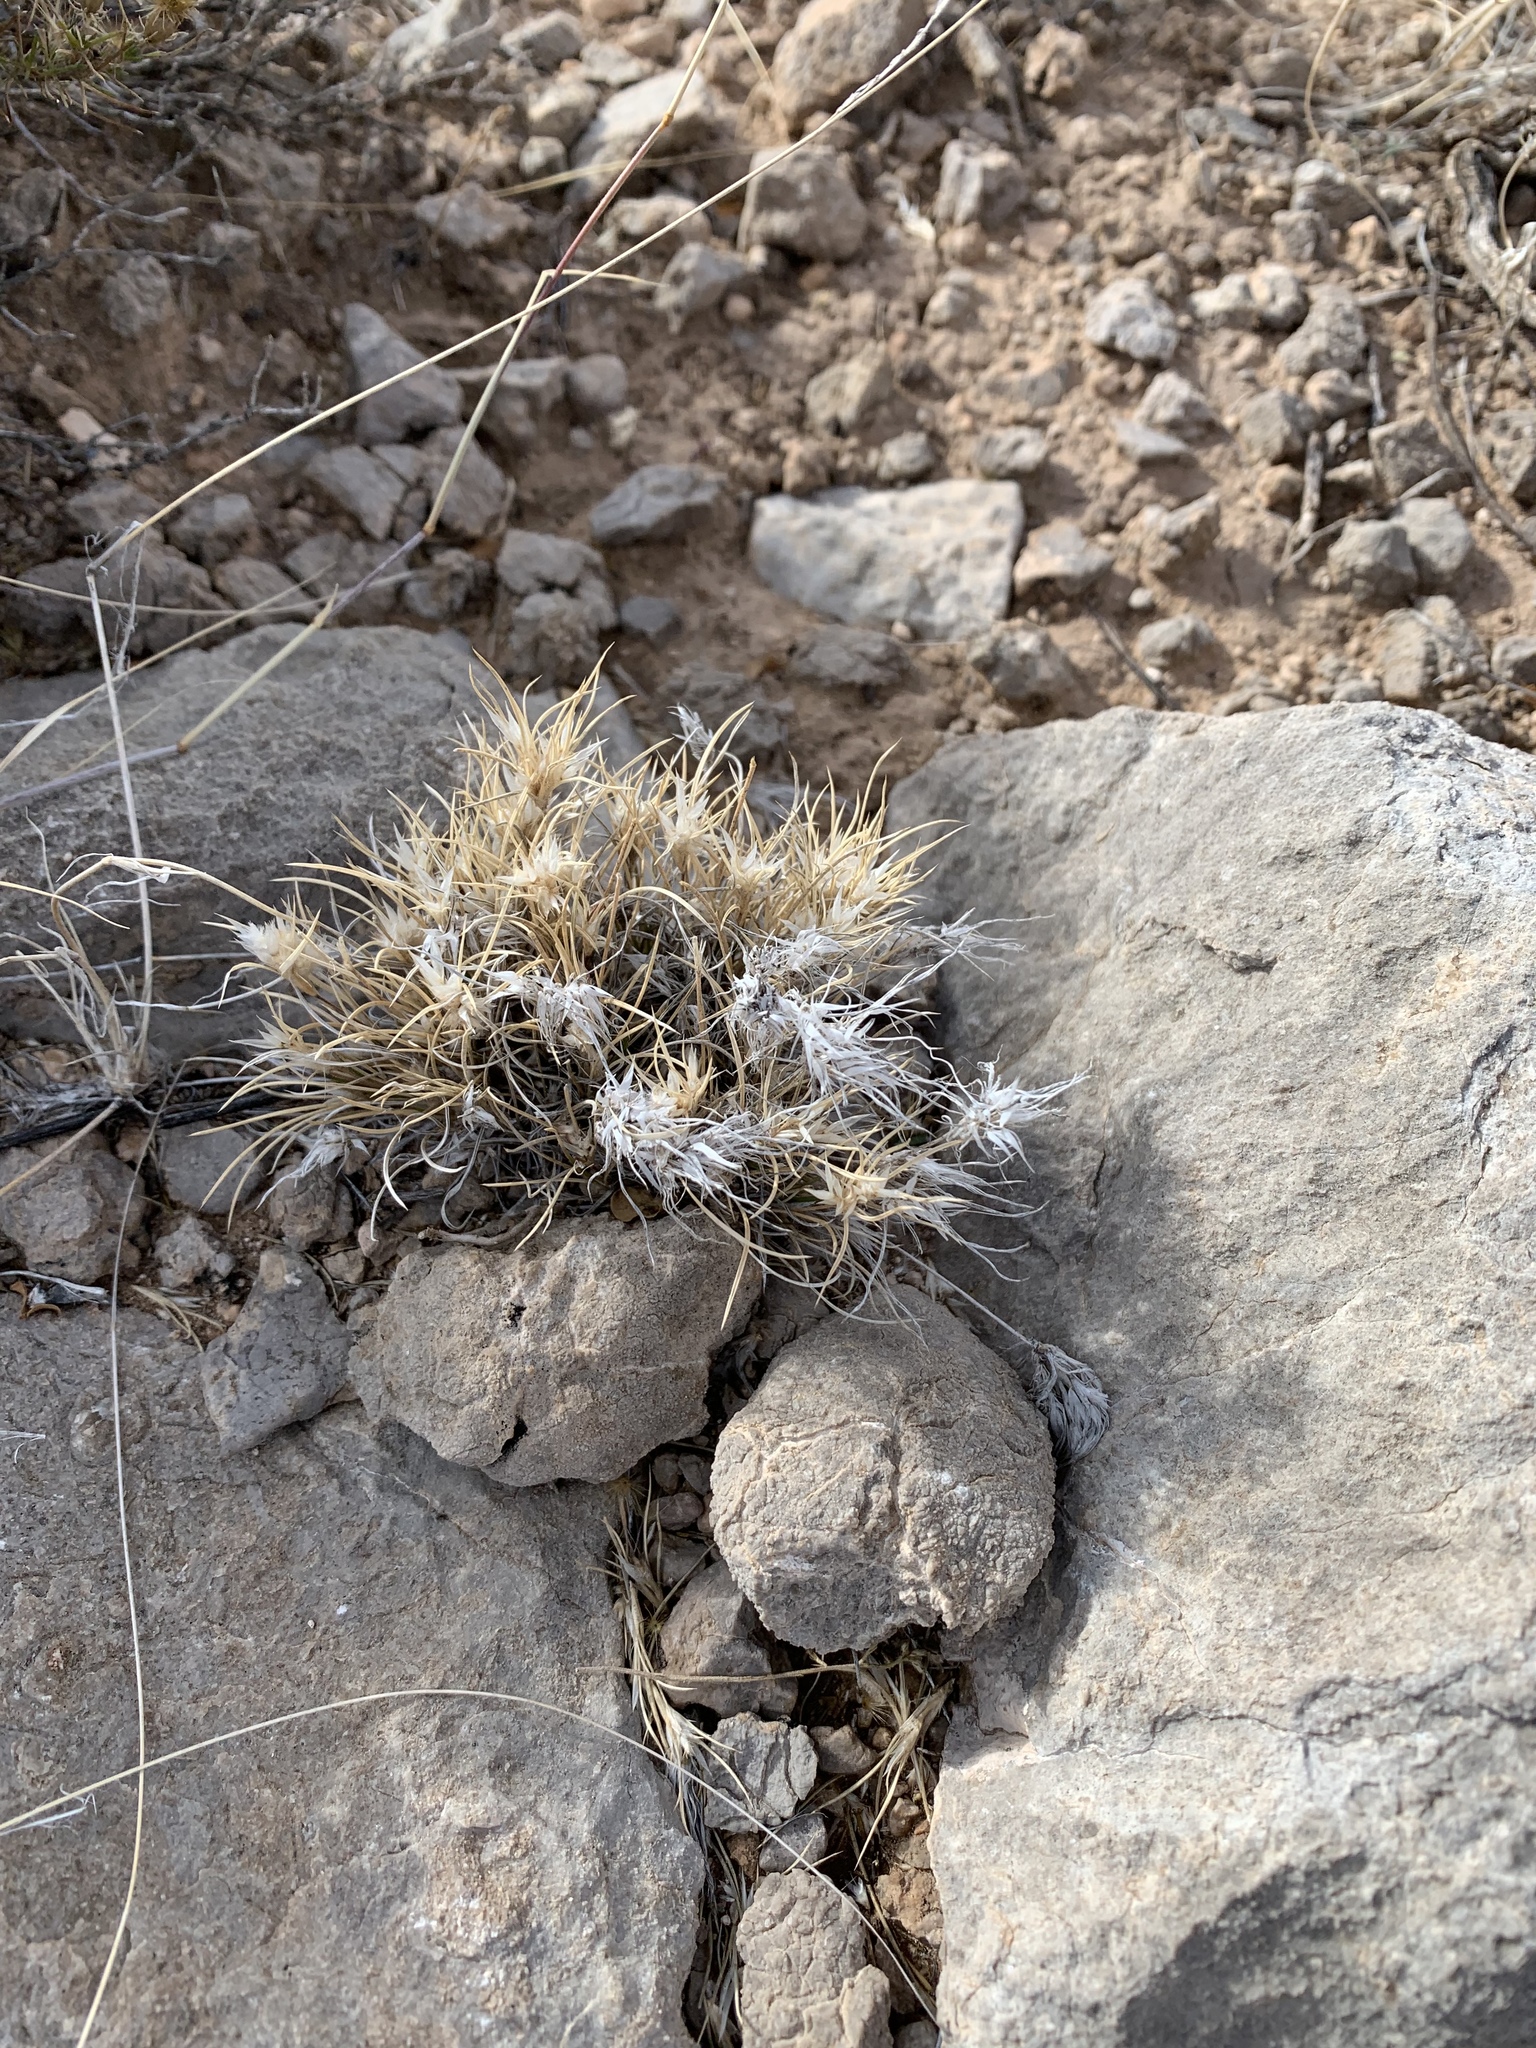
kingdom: Plantae
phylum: Tracheophyta
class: Liliopsida
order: Poales
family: Poaceae
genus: Dasyochloa
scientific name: Dasyochloa pulchella
